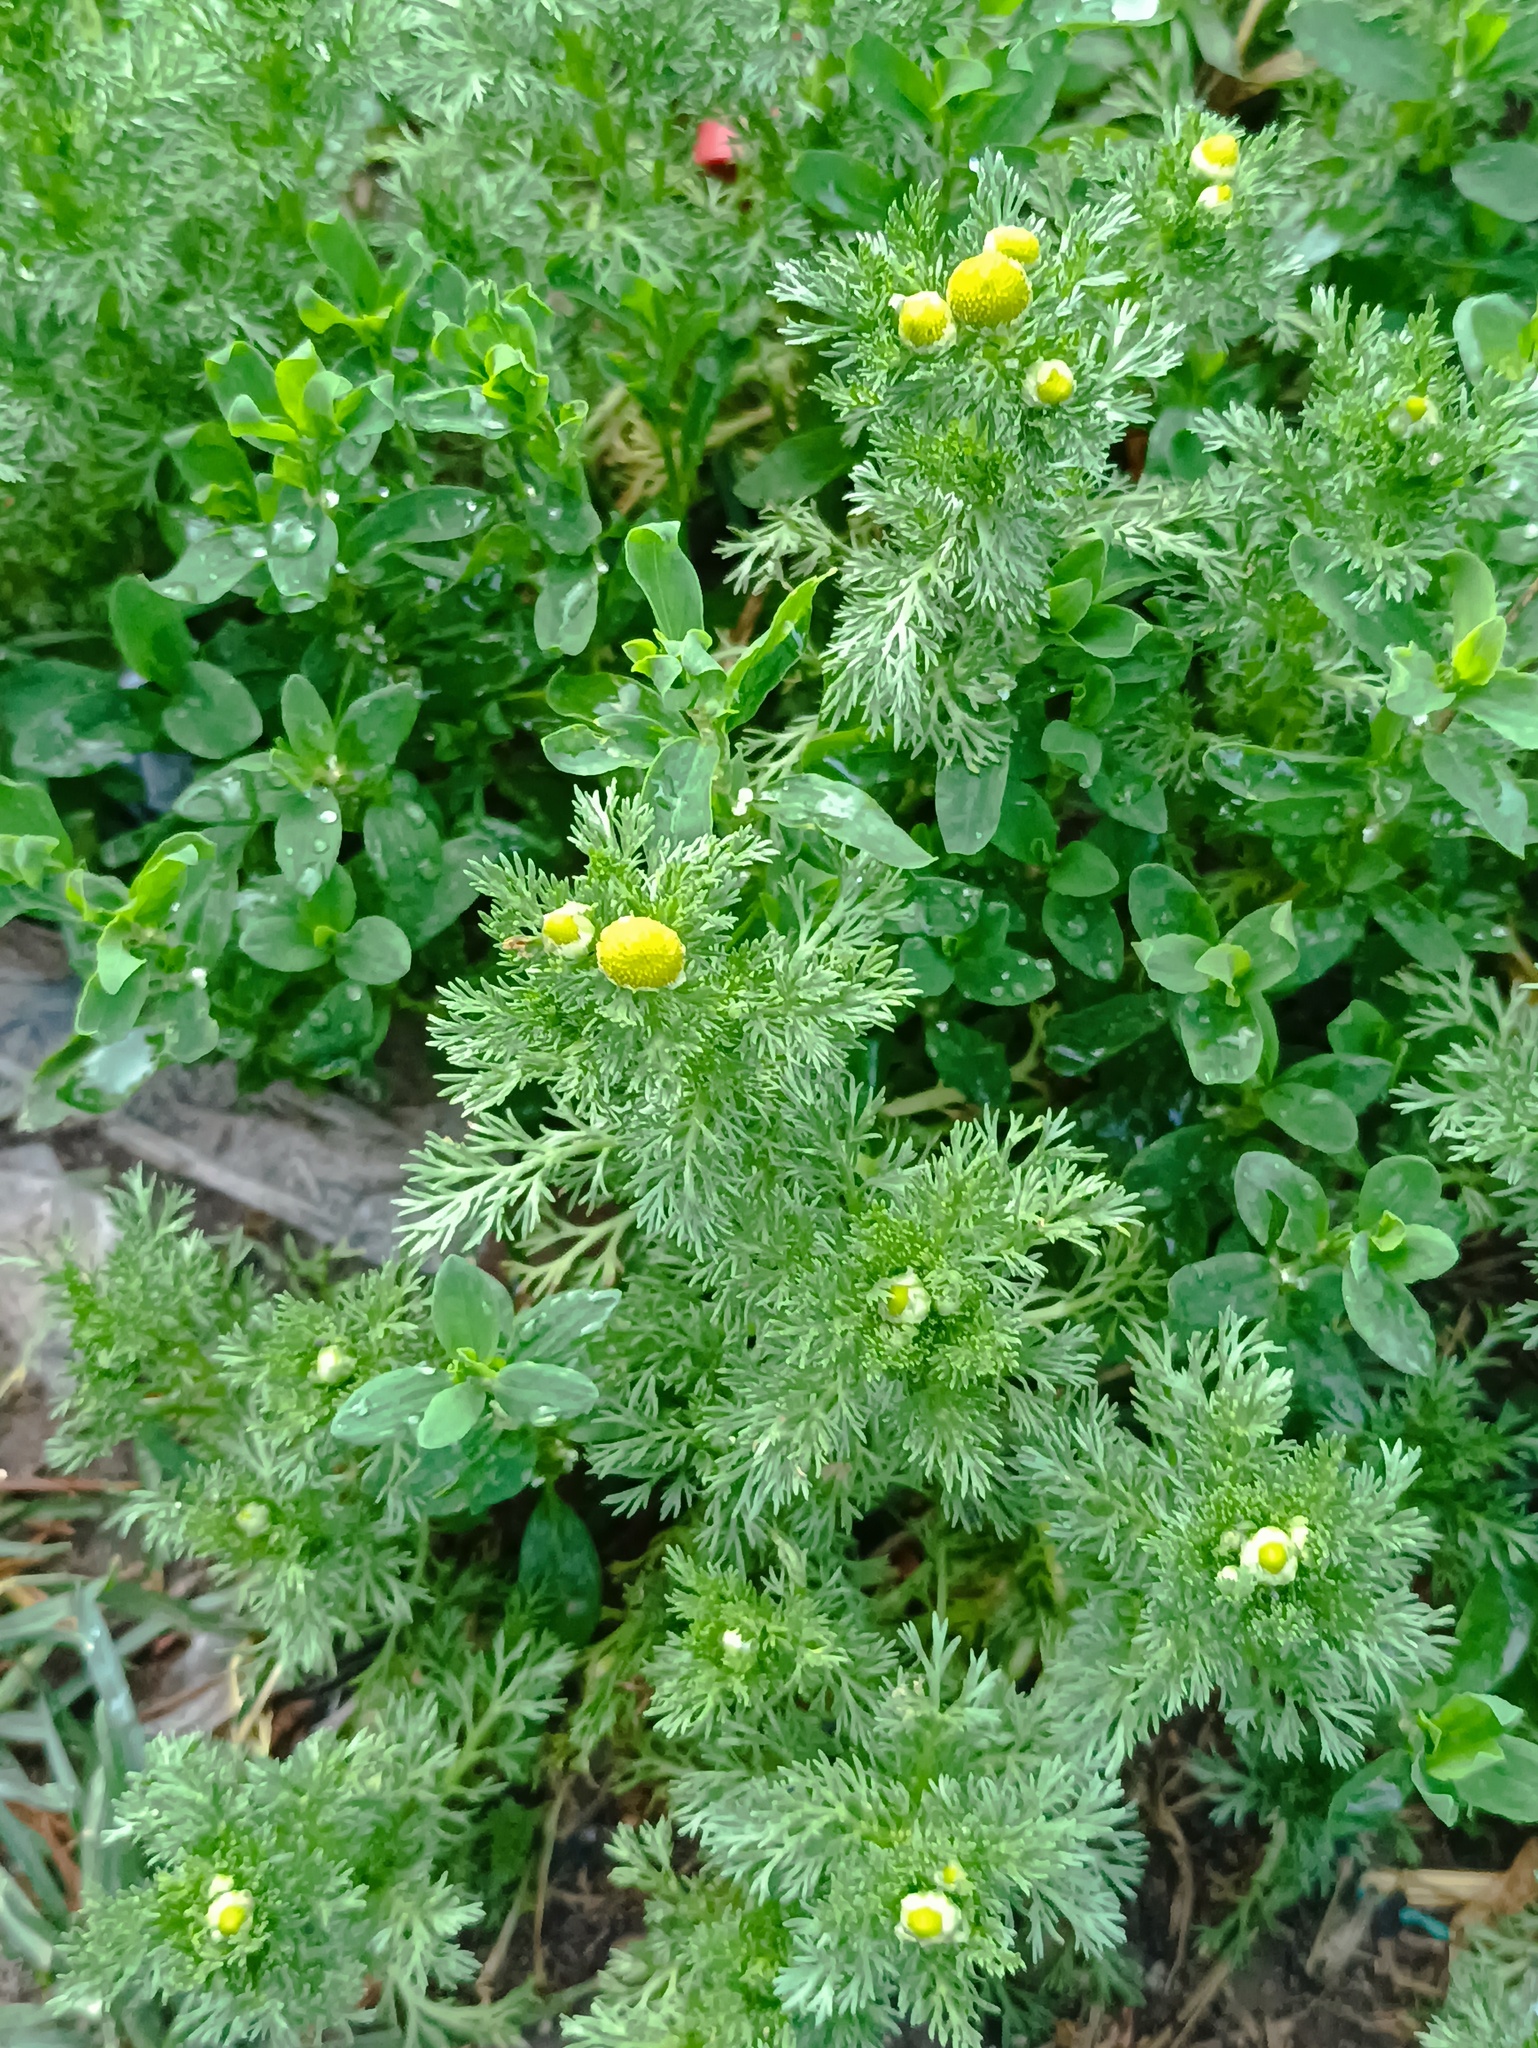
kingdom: Plantae
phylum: Tracheophyta
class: Magnoliopsida
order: Asterales
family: Asteraceae
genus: Matricaria
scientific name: Matricaria discoidea
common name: Disc mayweed
